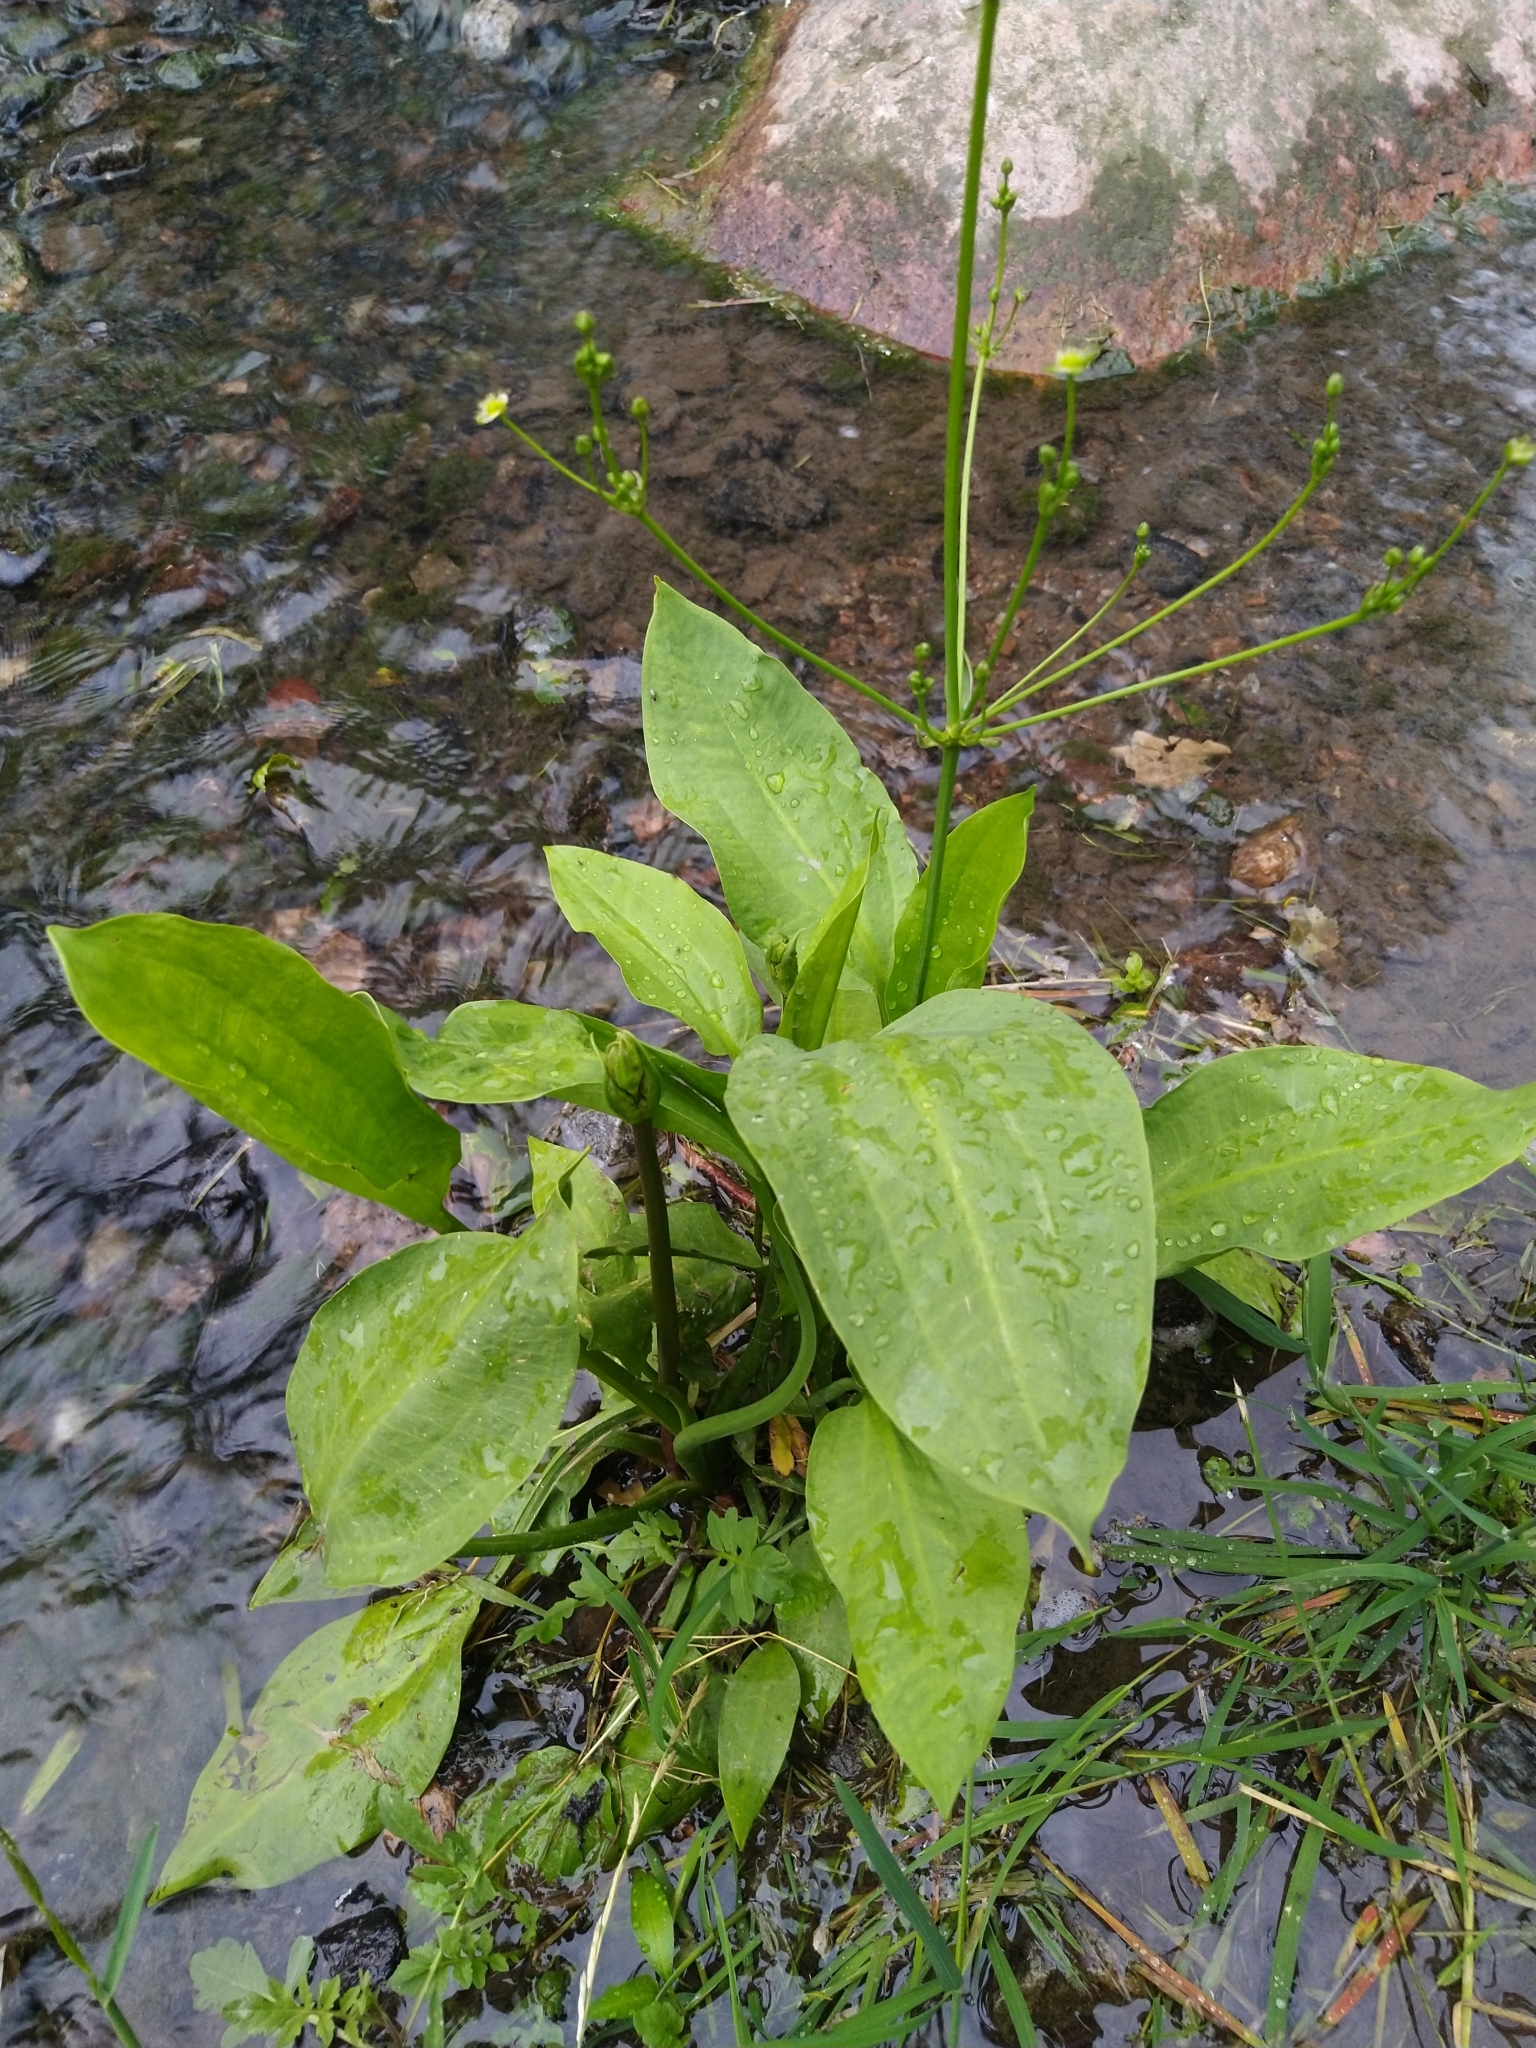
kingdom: Plantae
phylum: Tracheophyta
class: Liliopsida
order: Alismatales
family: Alismataceae
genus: Alisma
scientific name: Alisma plantago-aquatica
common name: Water-plantain
